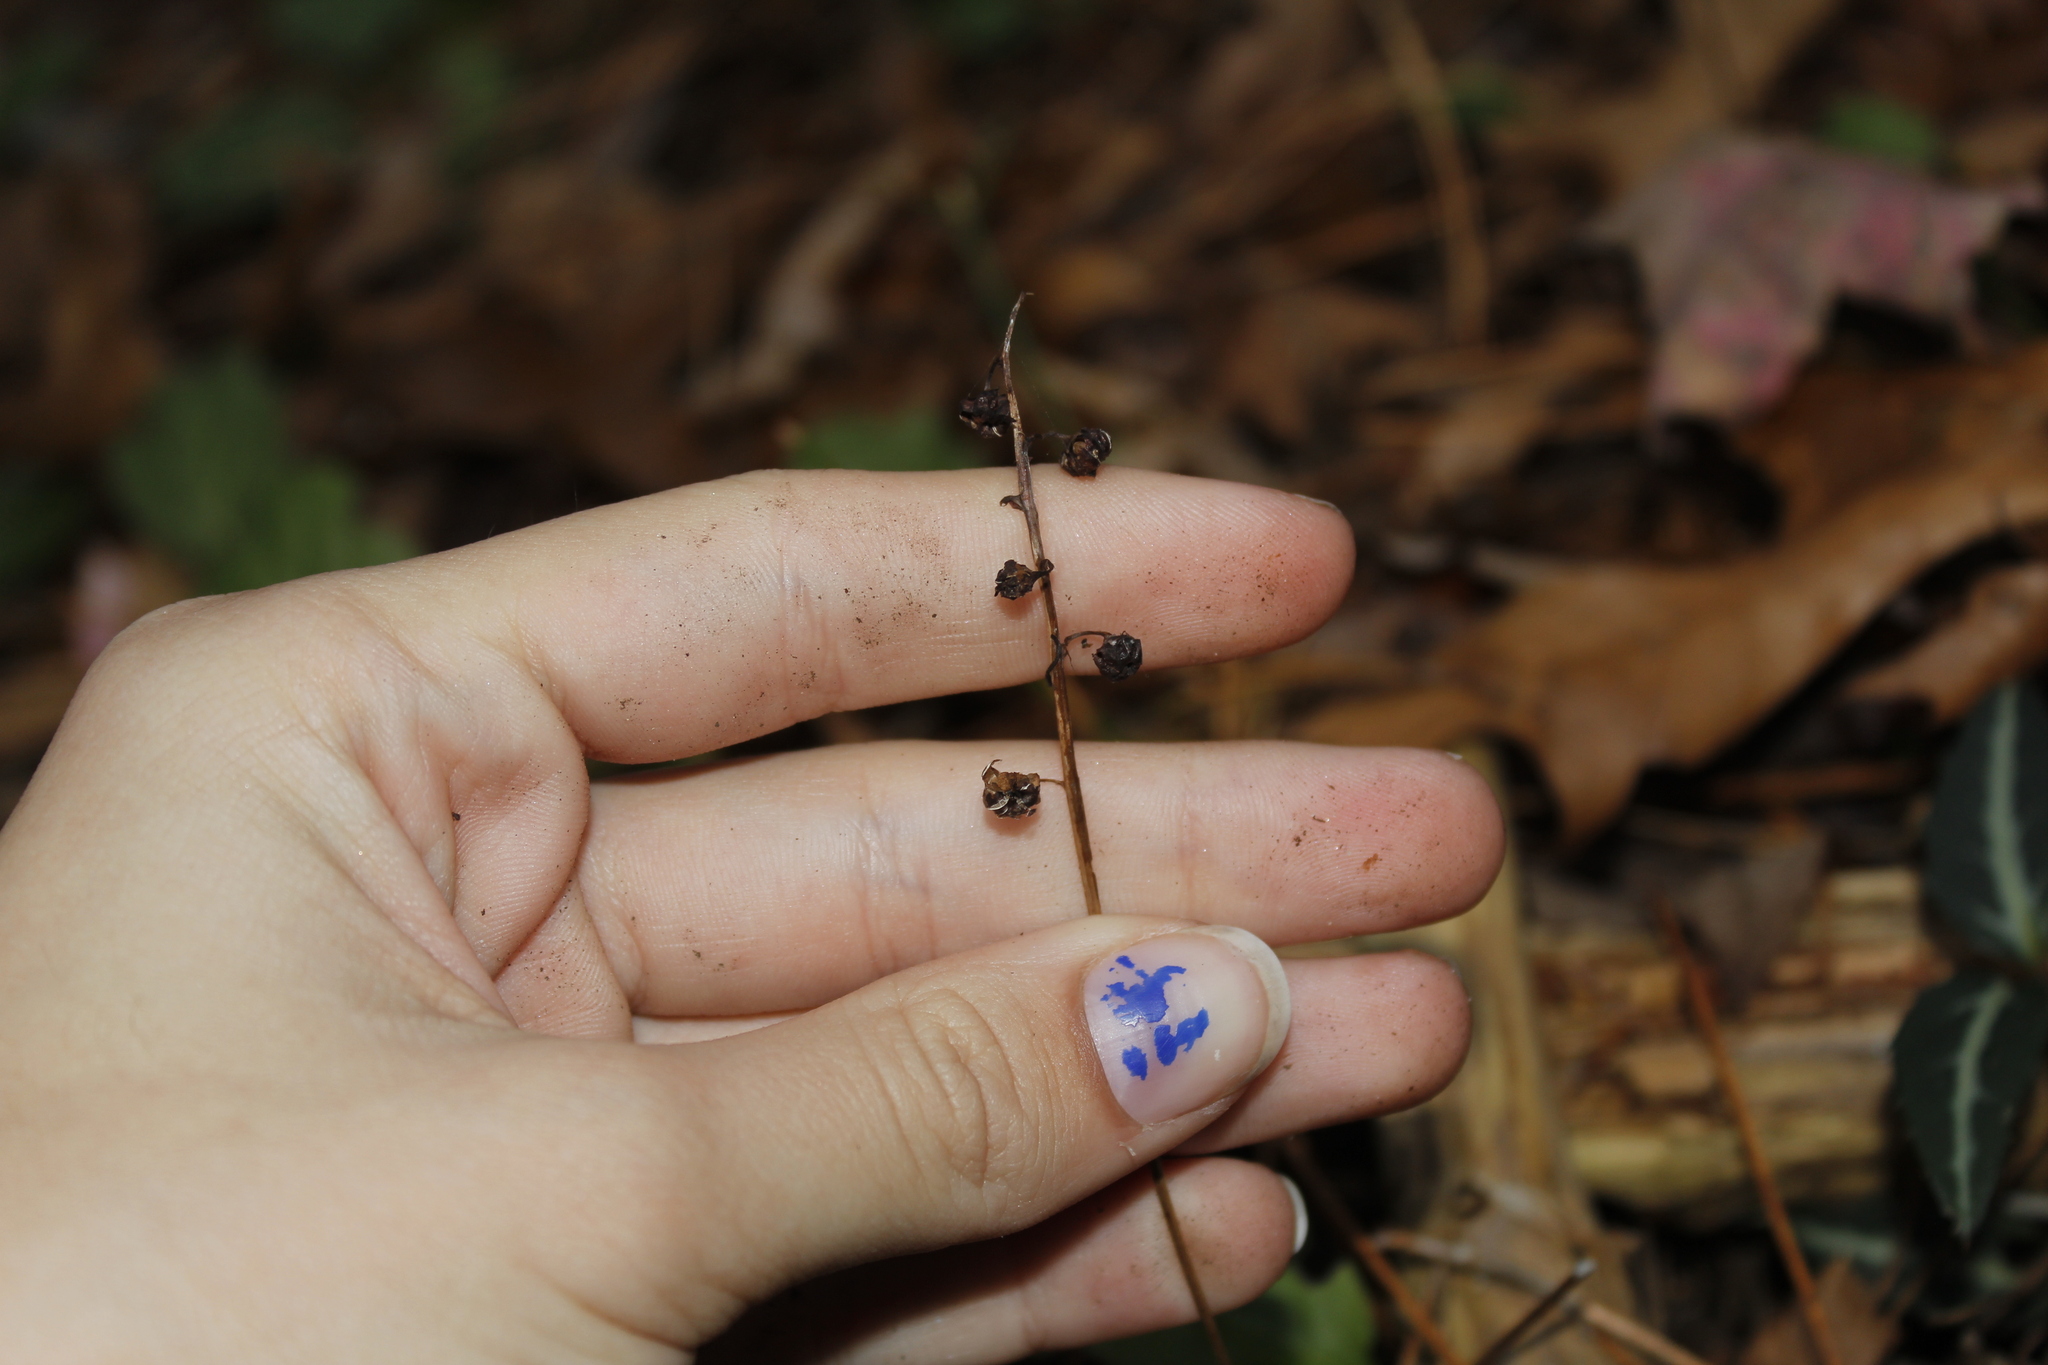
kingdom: Plantae
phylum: Tracheophyta
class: Magnoliopsida
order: Ericales
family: Ericaceae
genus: Pyrola
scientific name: Pyrola elliptica
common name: Shinleaf
